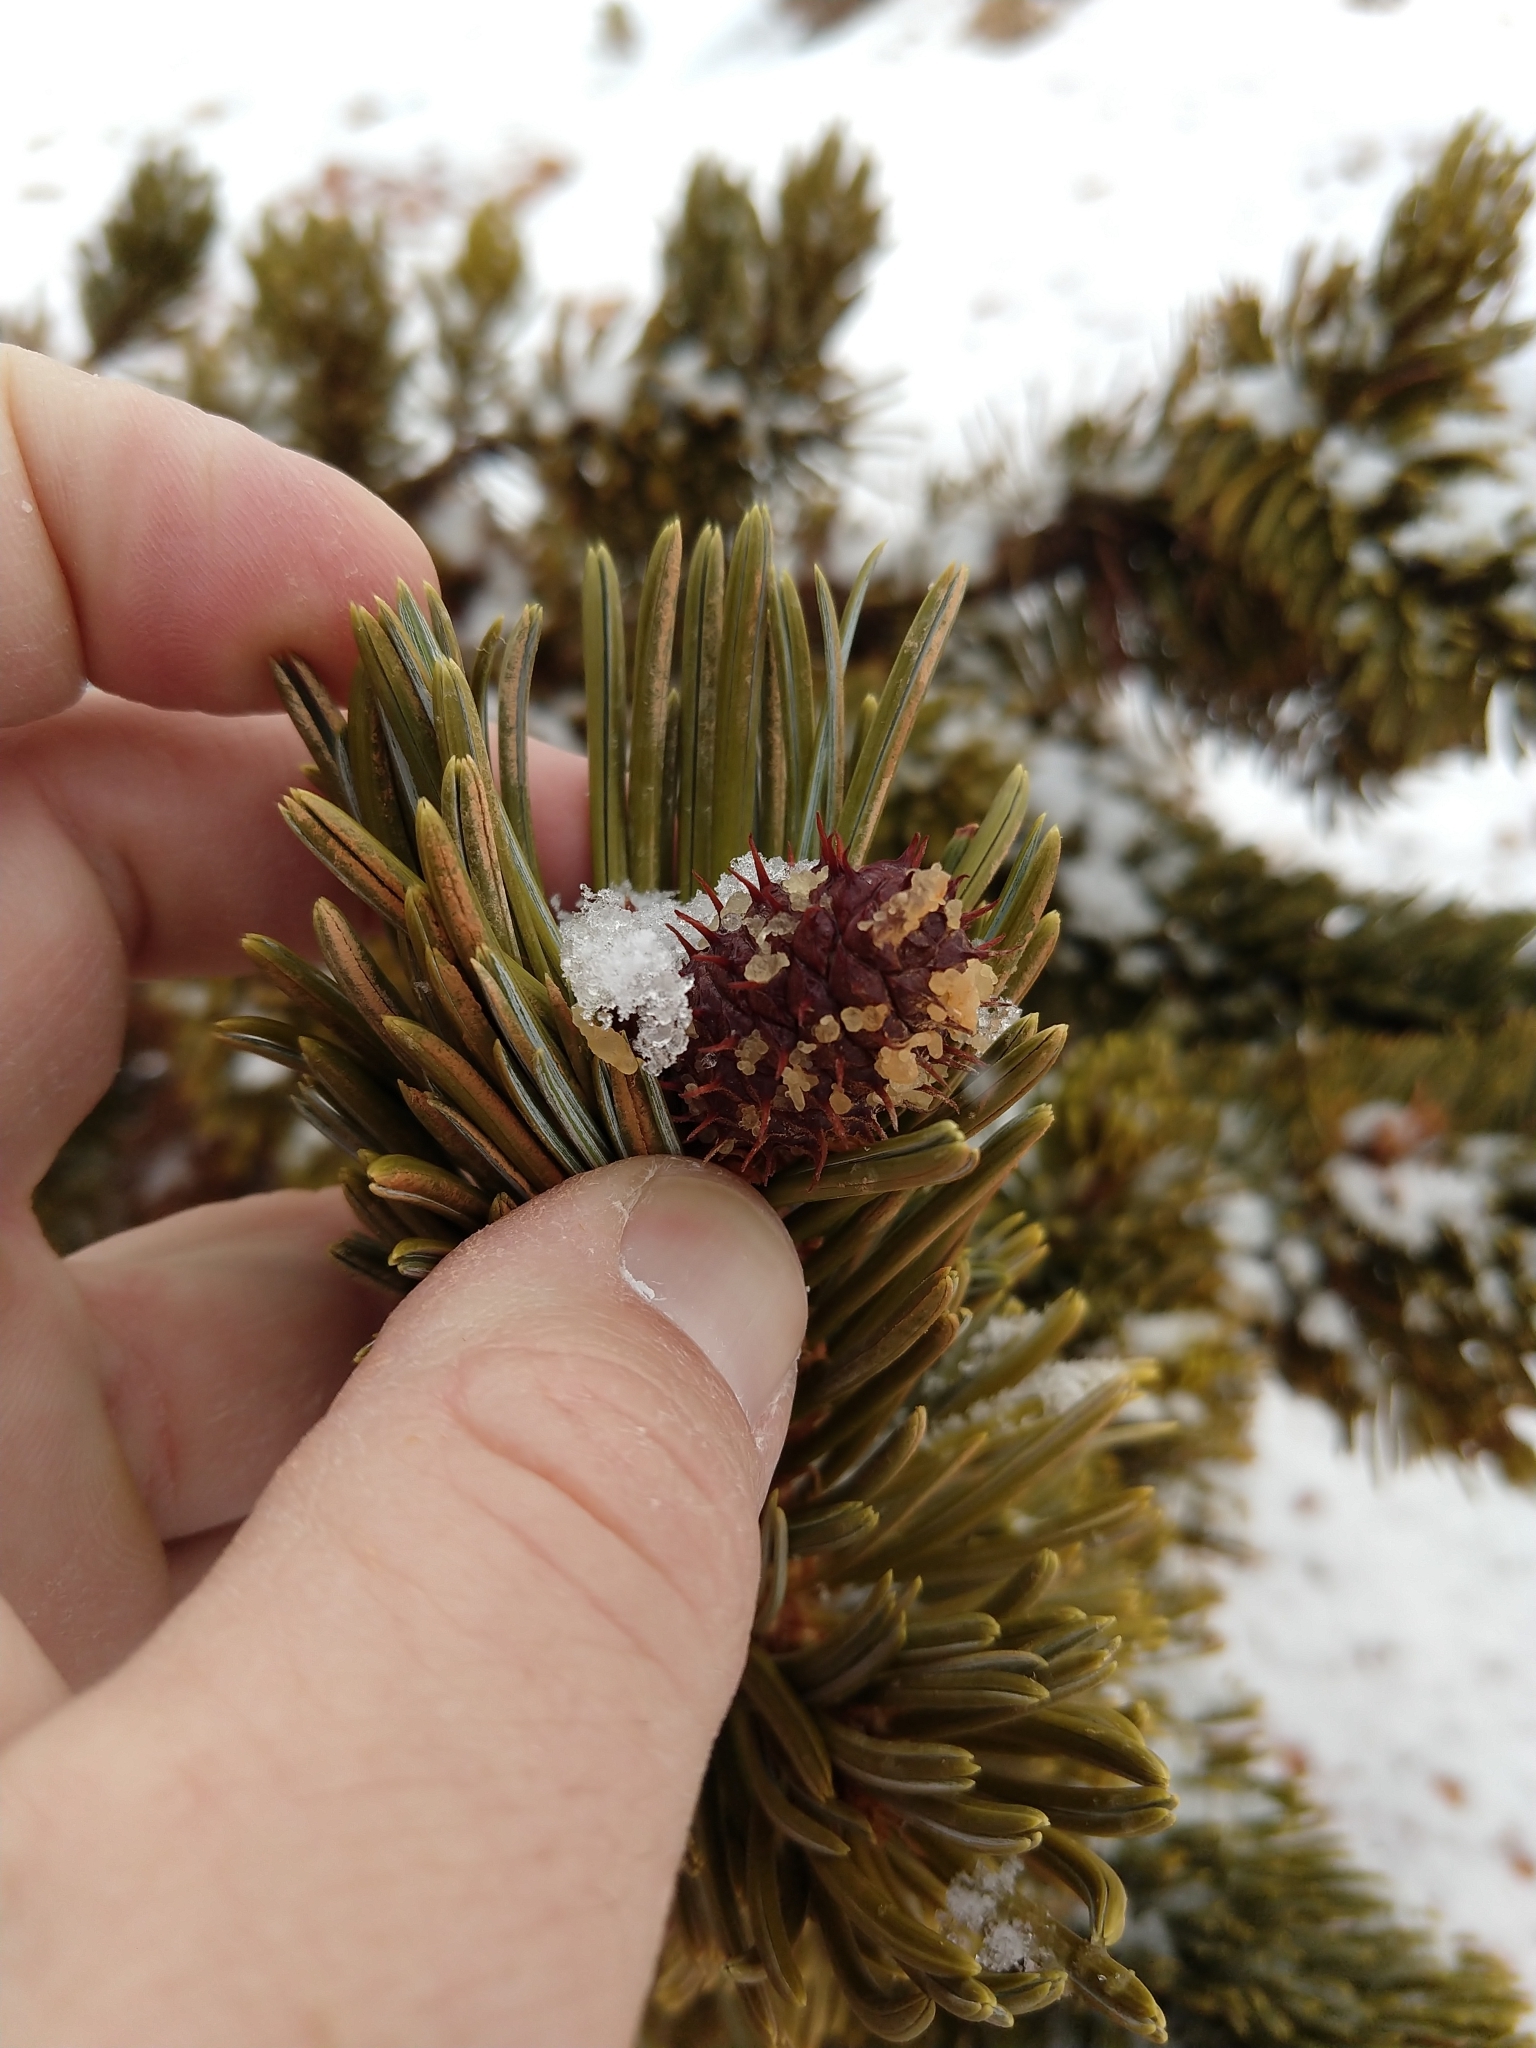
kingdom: Plantae
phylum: Tracheophyta
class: Pinopsida
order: Pinales
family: Pinaceae
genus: Pinus
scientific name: Pinus longaeva
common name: Intermountain bristlecone pine
